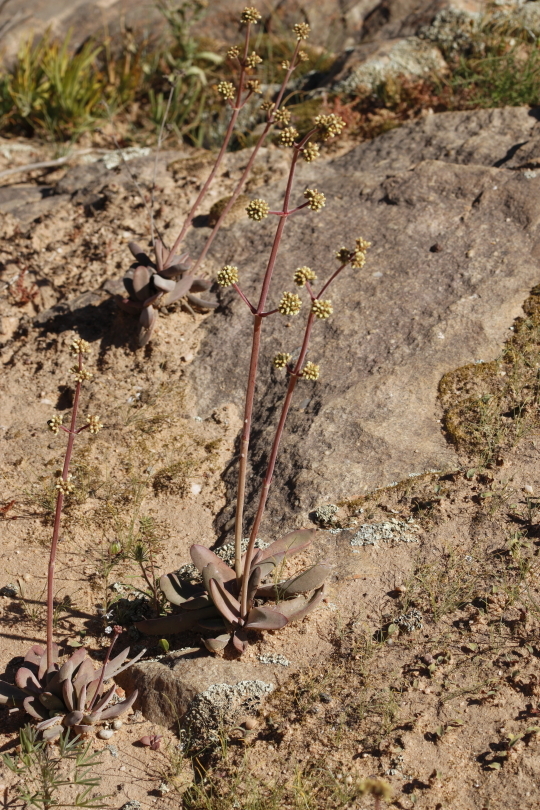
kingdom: Plantae
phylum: Tracheophyta
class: Magnoliopsida
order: Saxifragales
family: Crassulaceae
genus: Crassula
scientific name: Crassula nudicaulis
